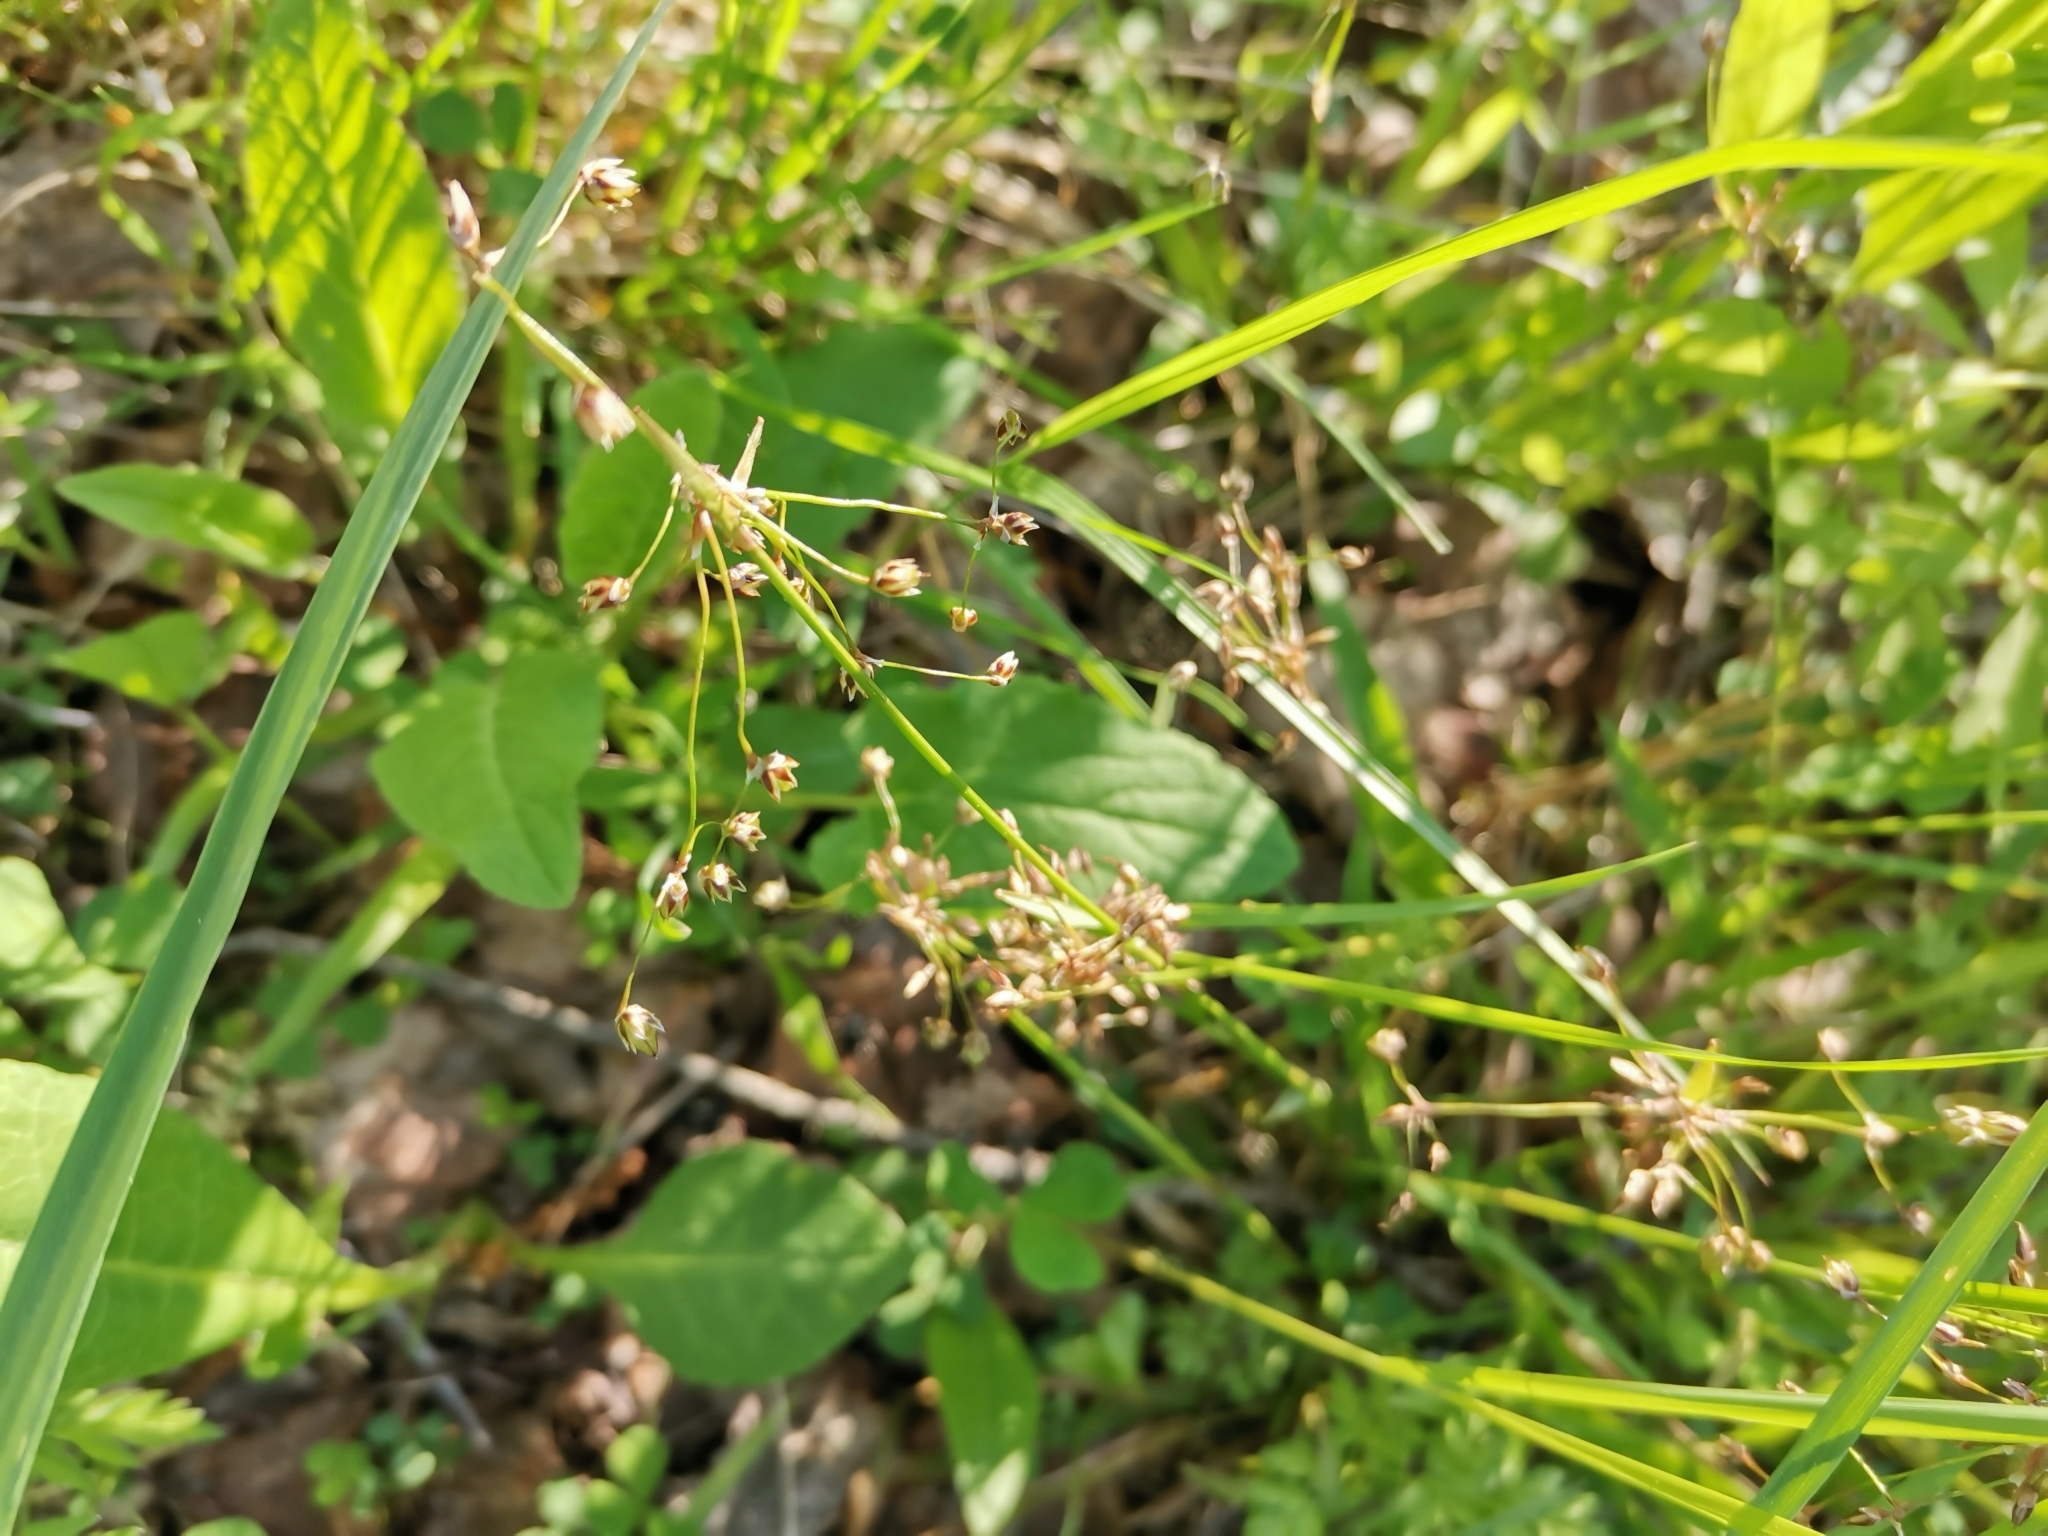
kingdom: Plantae
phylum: Tracheophyta
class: Liliopsida
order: Poales
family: Juncaceae
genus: Luzula
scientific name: Luzula pilosa
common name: Hairy wood-rush
